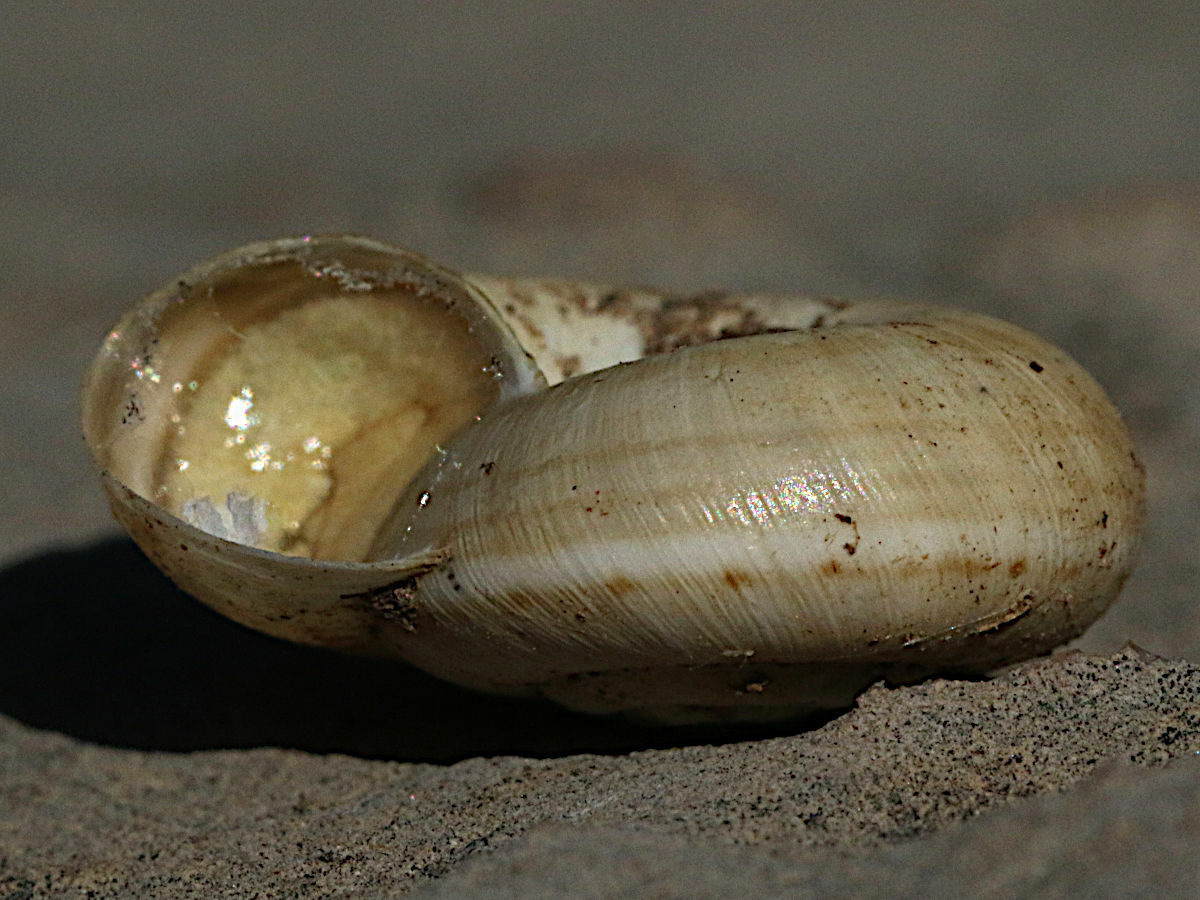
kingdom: Animalia
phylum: Mollusca
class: Gastropoda
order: Stylommatophora
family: Geomitridae
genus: Xeromunda
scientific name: Xeromunda vulgarissima
